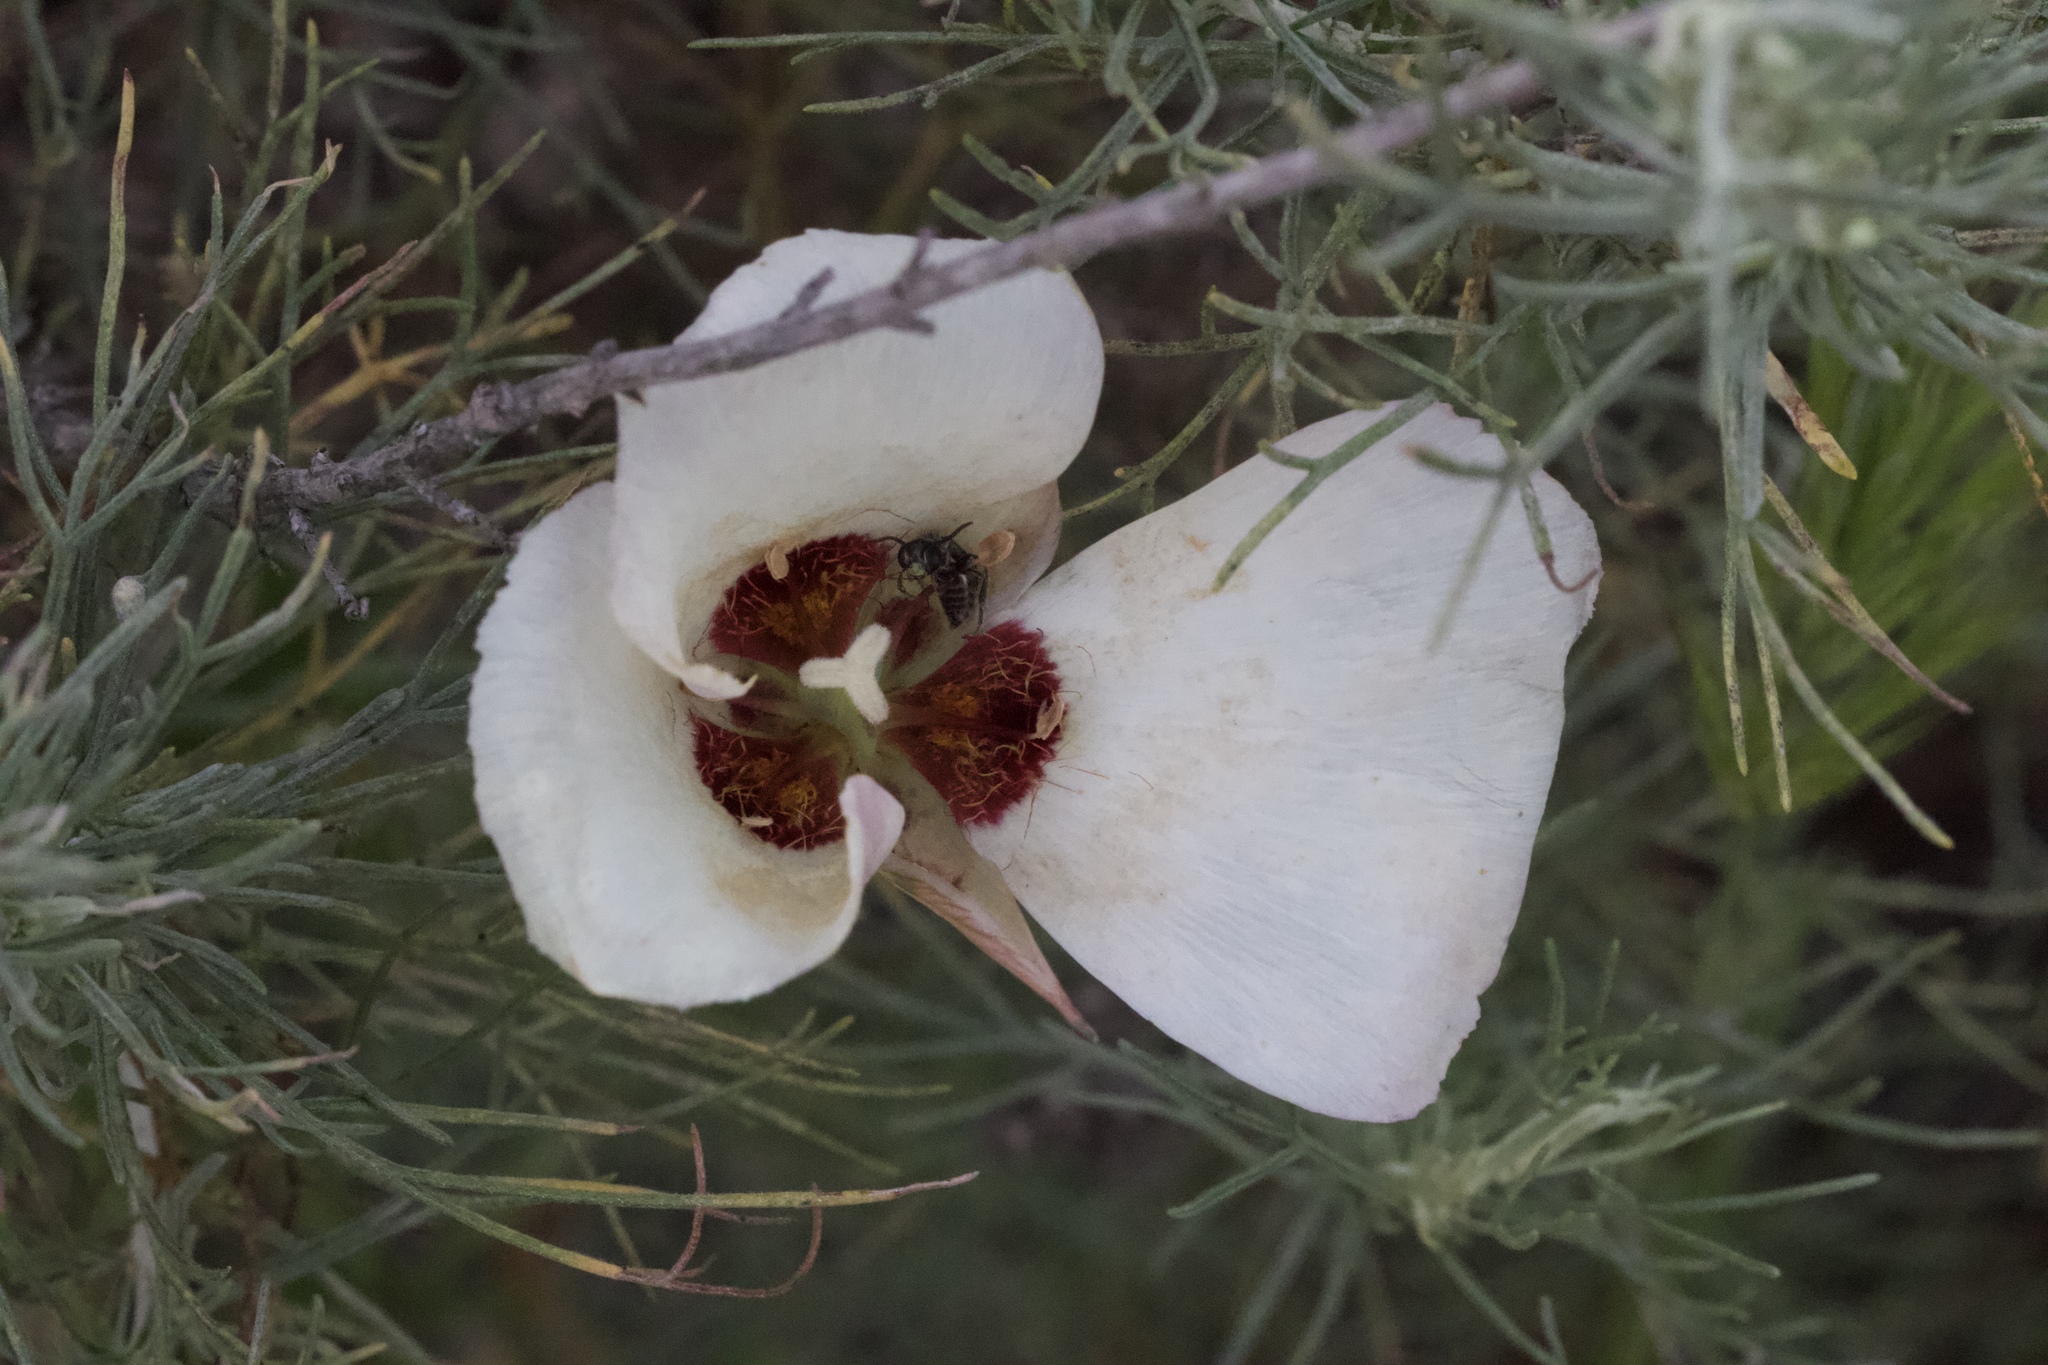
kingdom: Plantae
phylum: Tracheophyta
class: Liliopsida
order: Liliales
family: Liliaceae
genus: Calochortus
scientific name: Calochortus catalinae
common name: Catalina mariposa-lily
